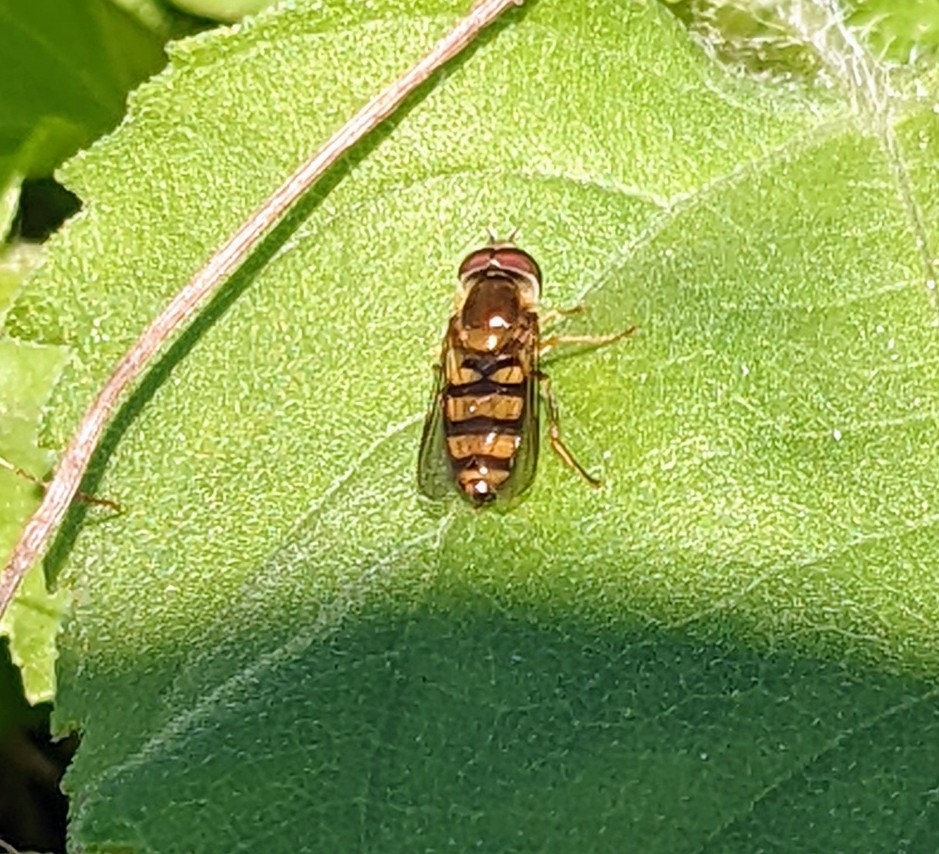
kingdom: Animalia
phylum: Arthropoda
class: Insecta
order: Diptera
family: Syrphidae
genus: Eupeodes
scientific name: Eupeodes
